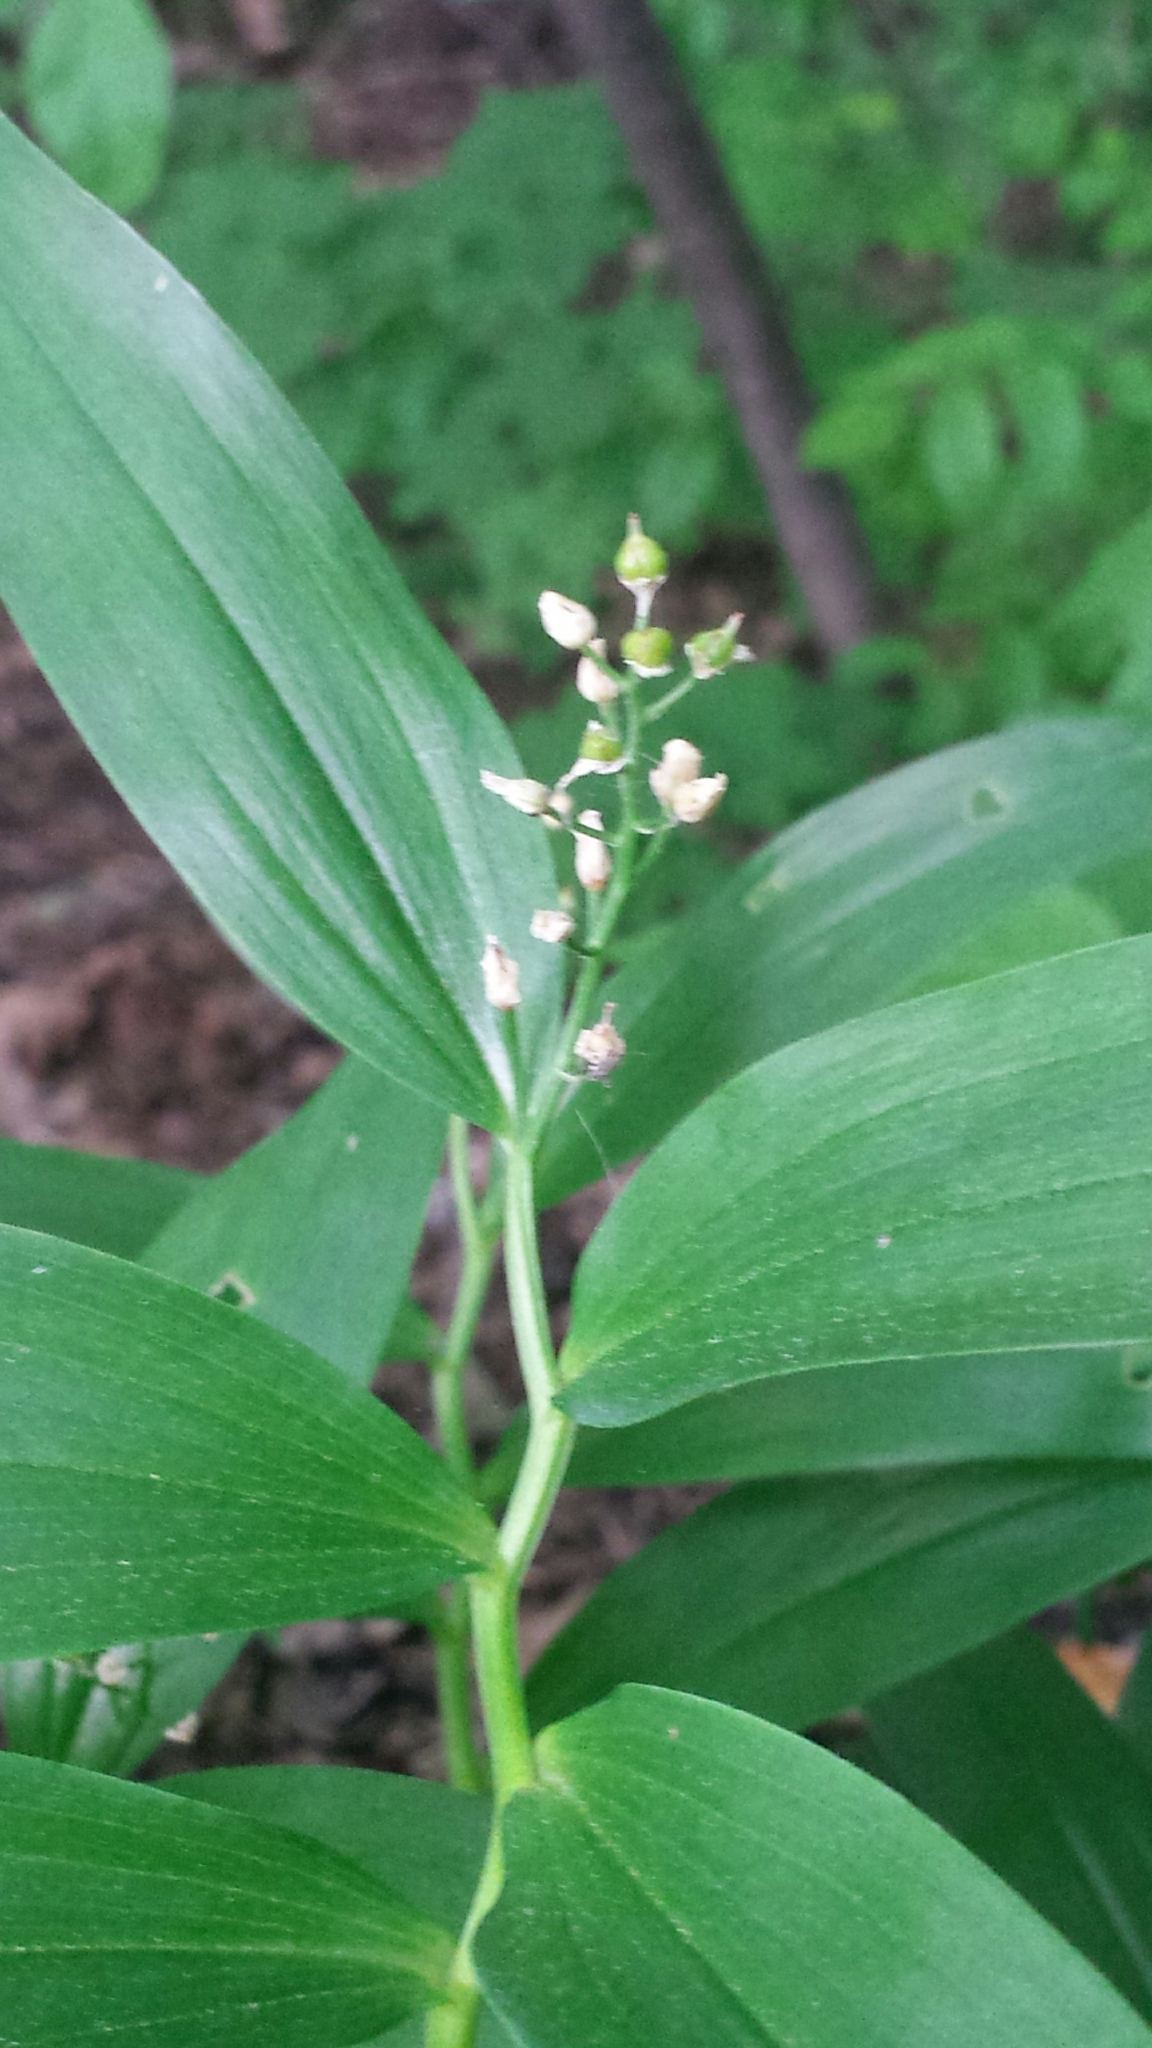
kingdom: Plantae
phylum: Tracheophyta
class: Liliopsida
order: Asparagales
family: Asparagaceae
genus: Maianthemum
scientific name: Maianthemum stellatum
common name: Little false solomon's seal
